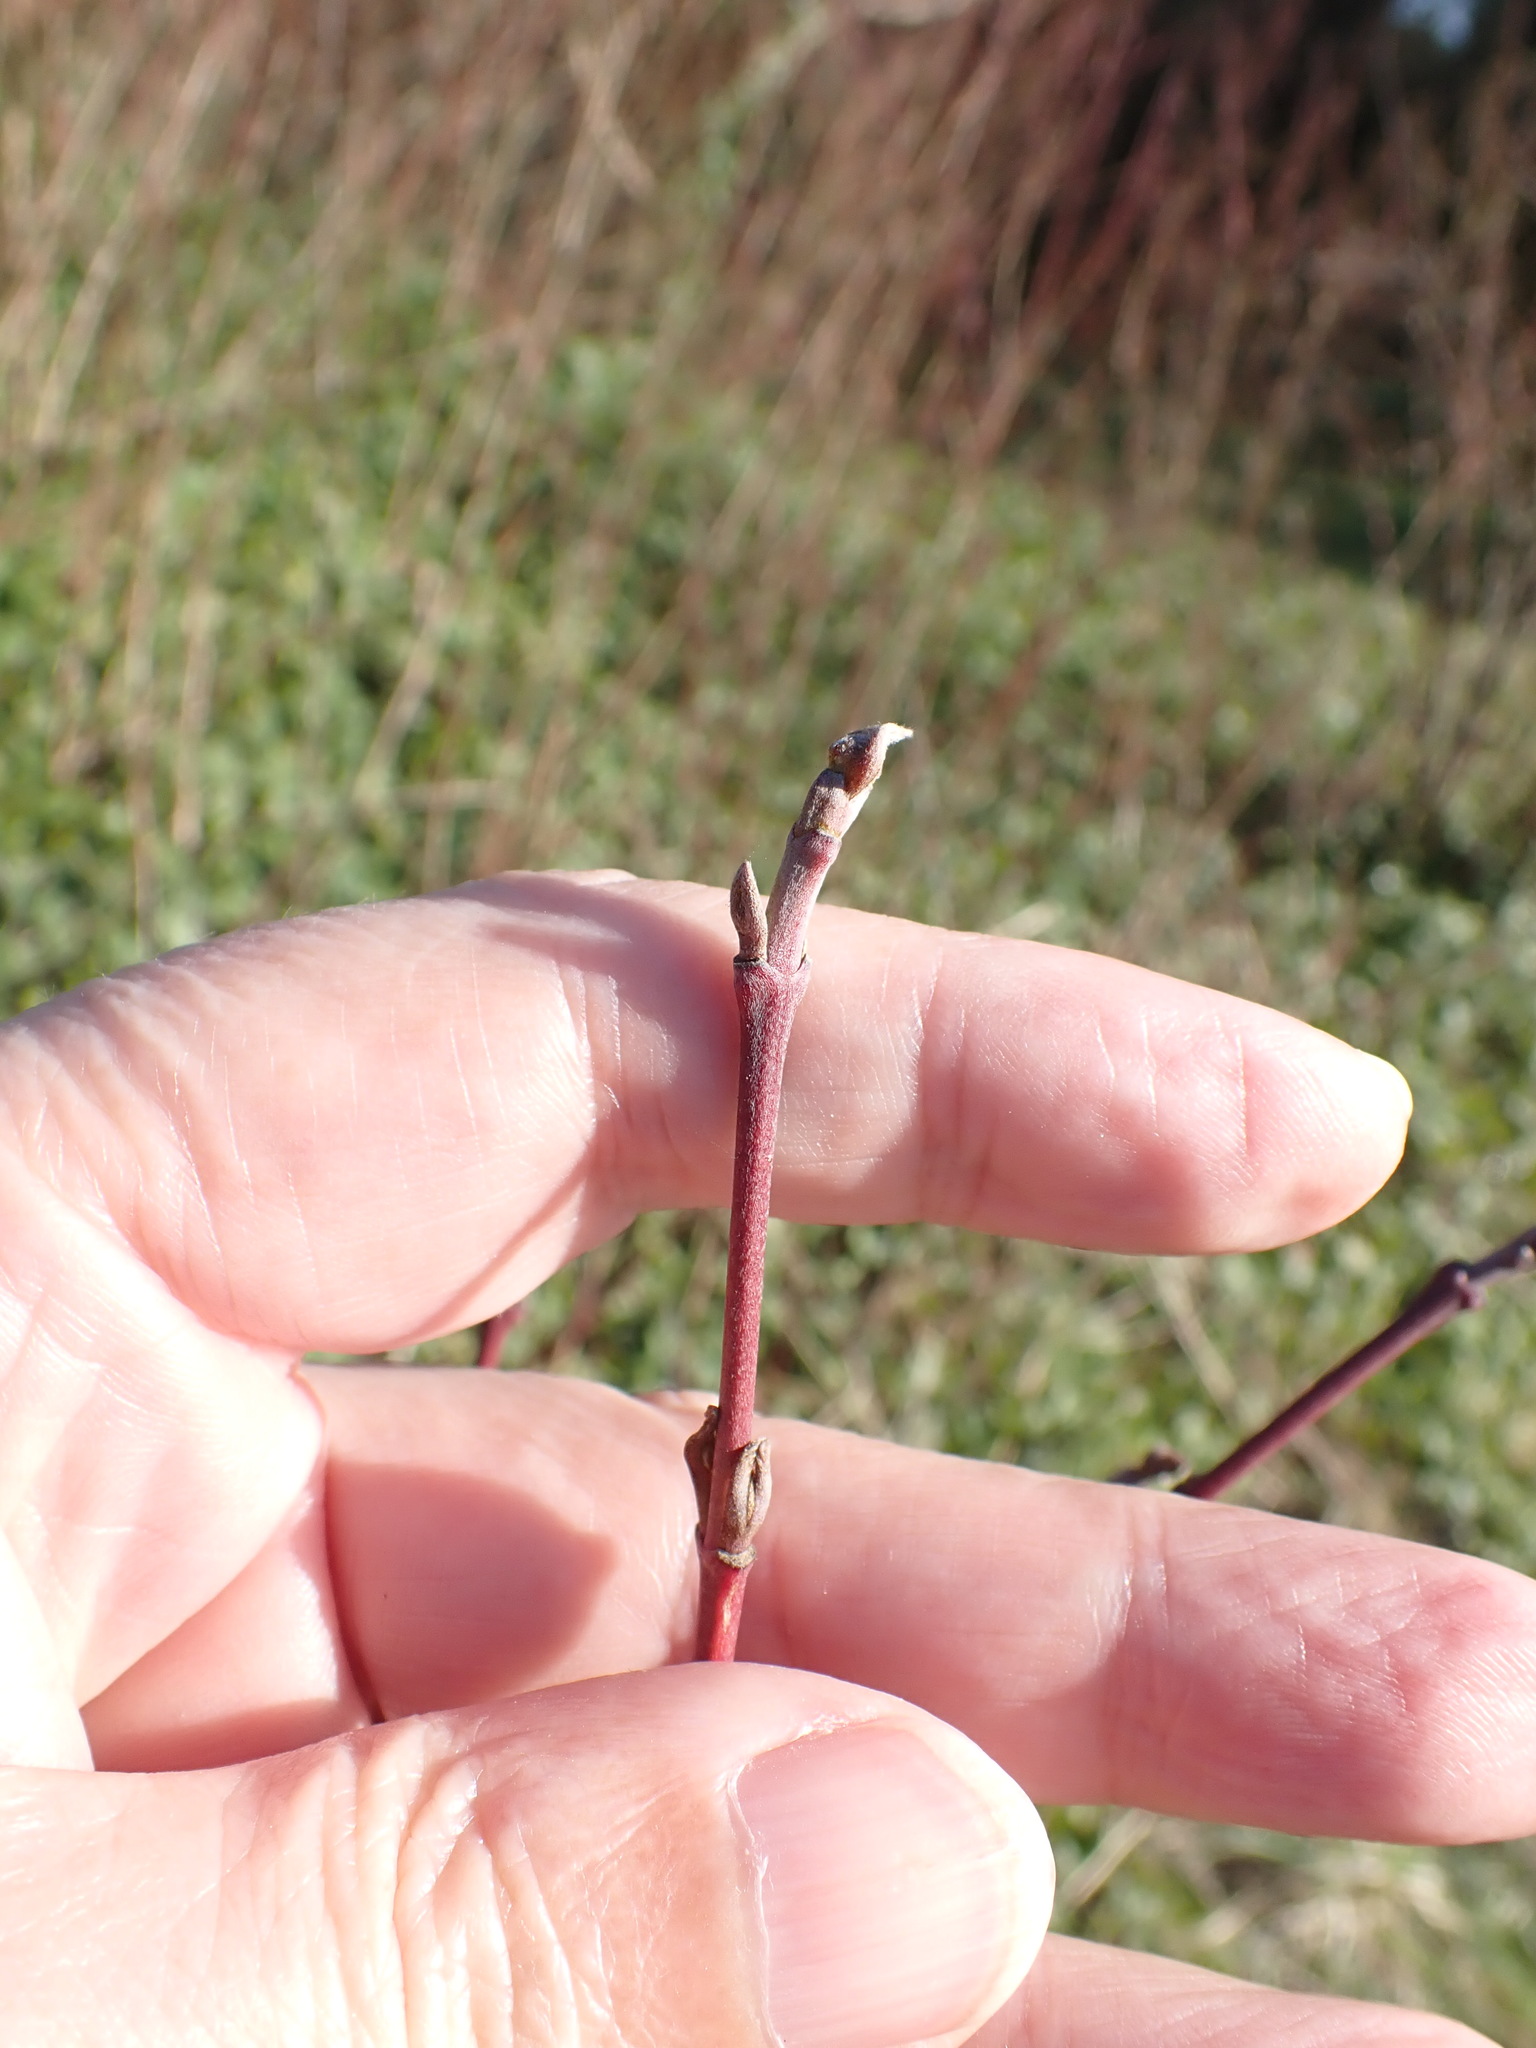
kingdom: Plantae
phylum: Tracheophyta
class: Magnoliopsida
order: Cornales
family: Cornaceae
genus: Cornus
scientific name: Cornus sanguinea
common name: Dogwood
